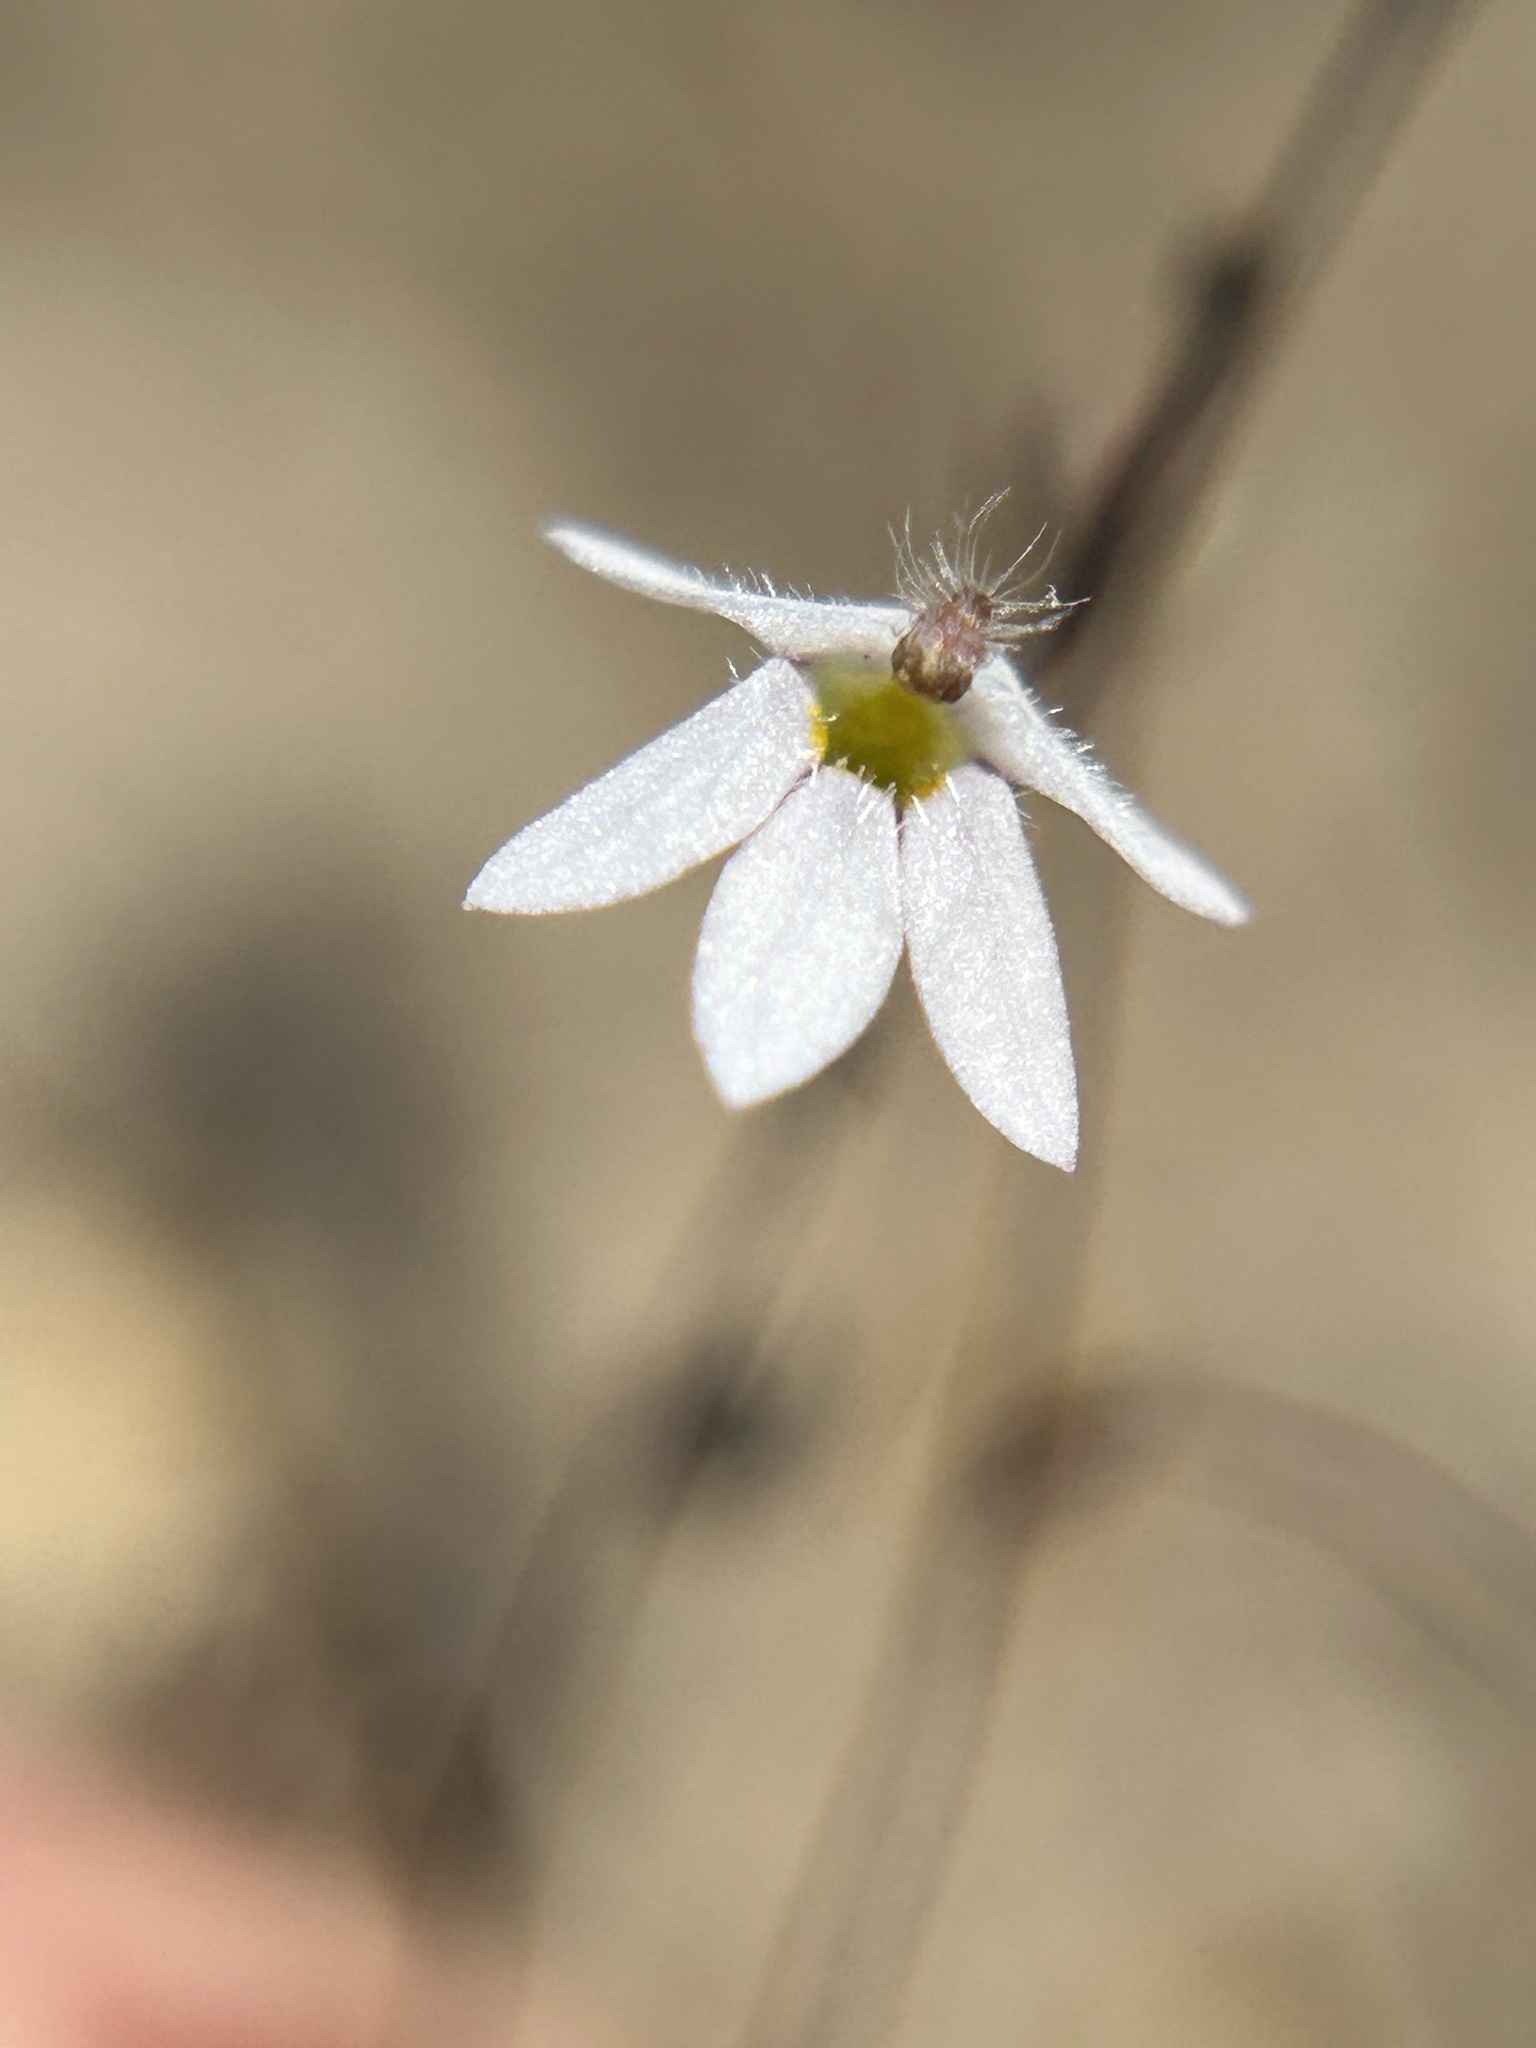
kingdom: Plantae
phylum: Tracheophyta
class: Magnoliopsida
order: Asterales
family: Campanulaceae
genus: Nemacladus
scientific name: Nemacladus secundiflorus
